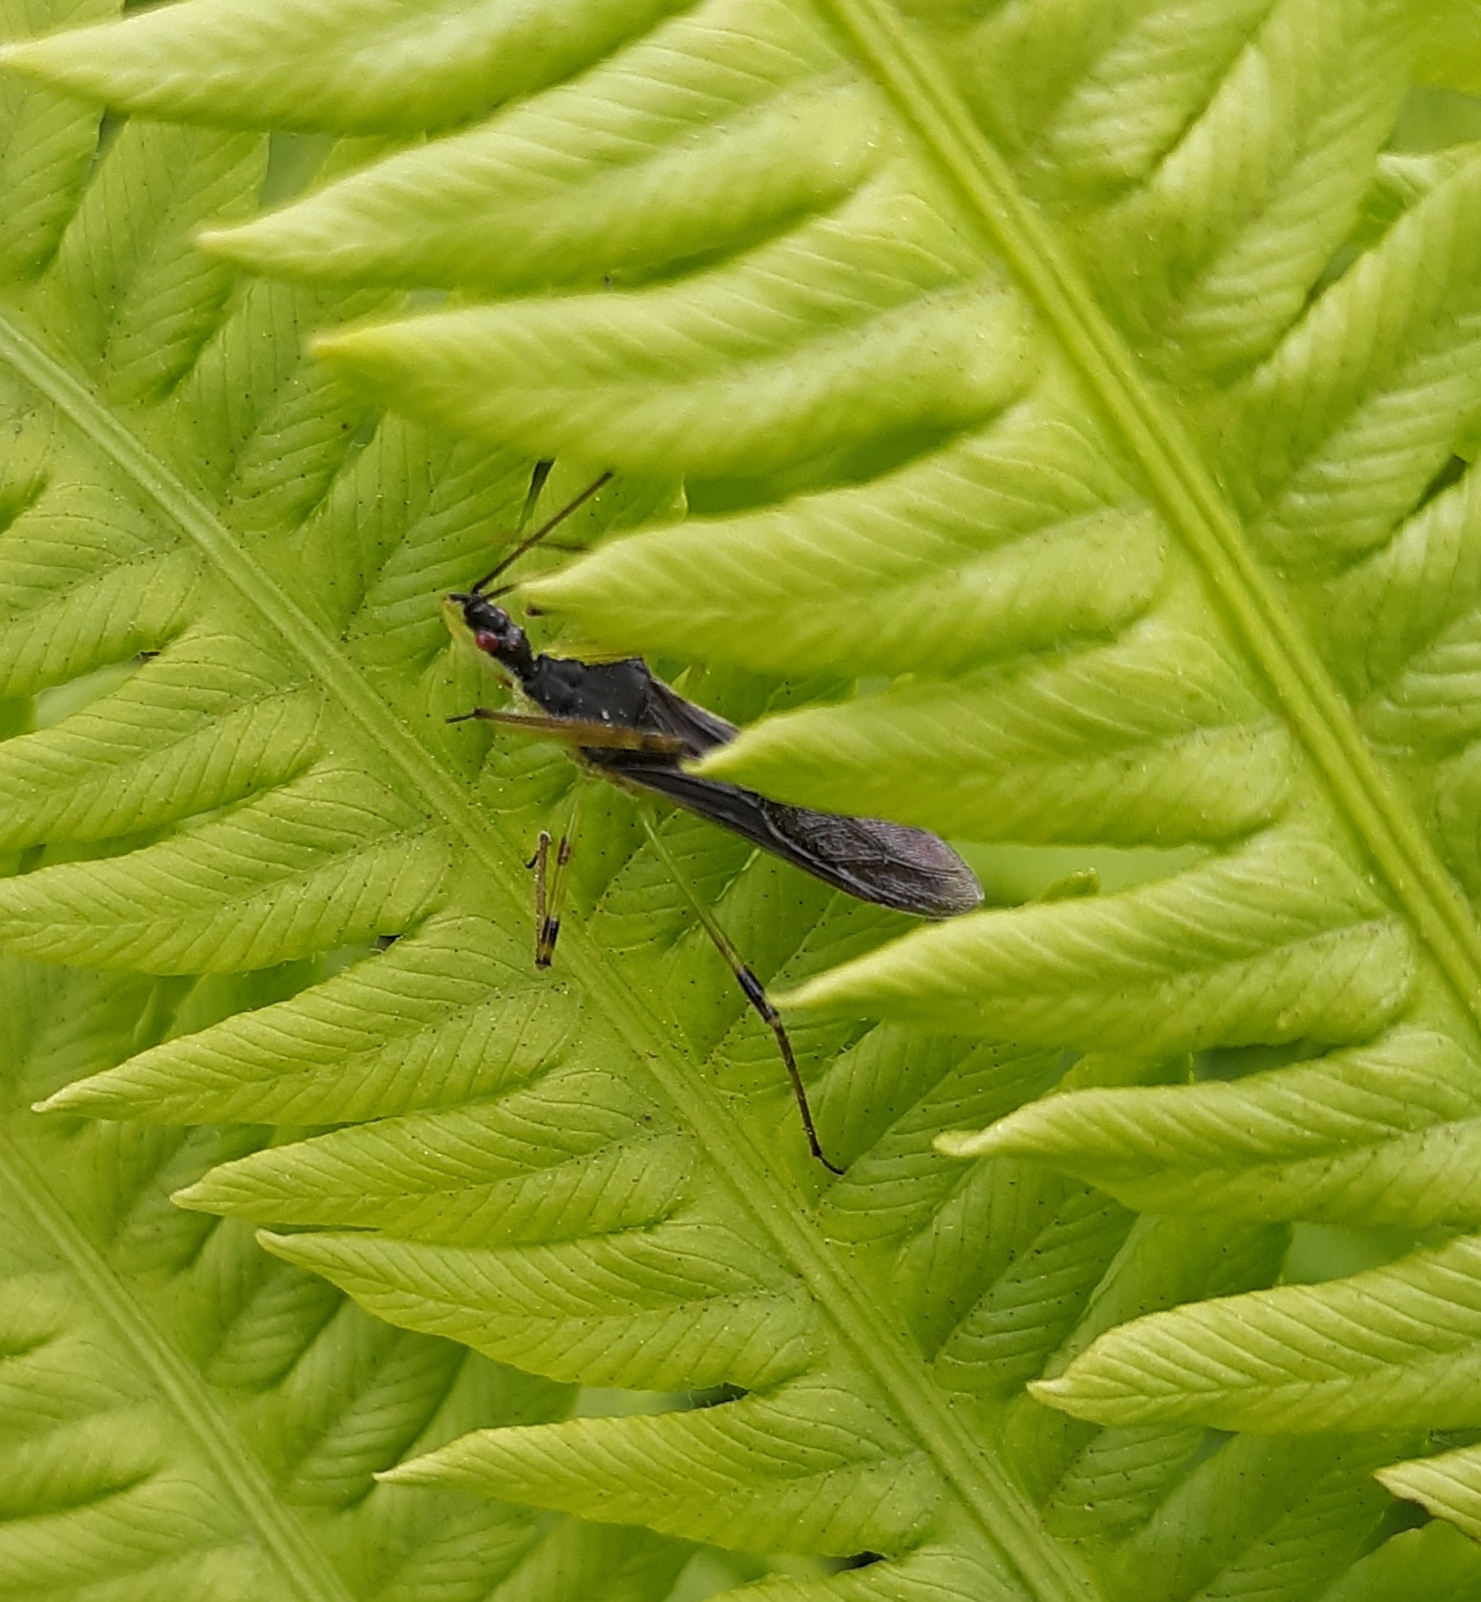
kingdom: Animalia
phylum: Arthropoda
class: Insecta
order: Hemiptera
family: Reduviidae
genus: Zelus
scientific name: Zelus luridus
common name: Pale green assassin bug
